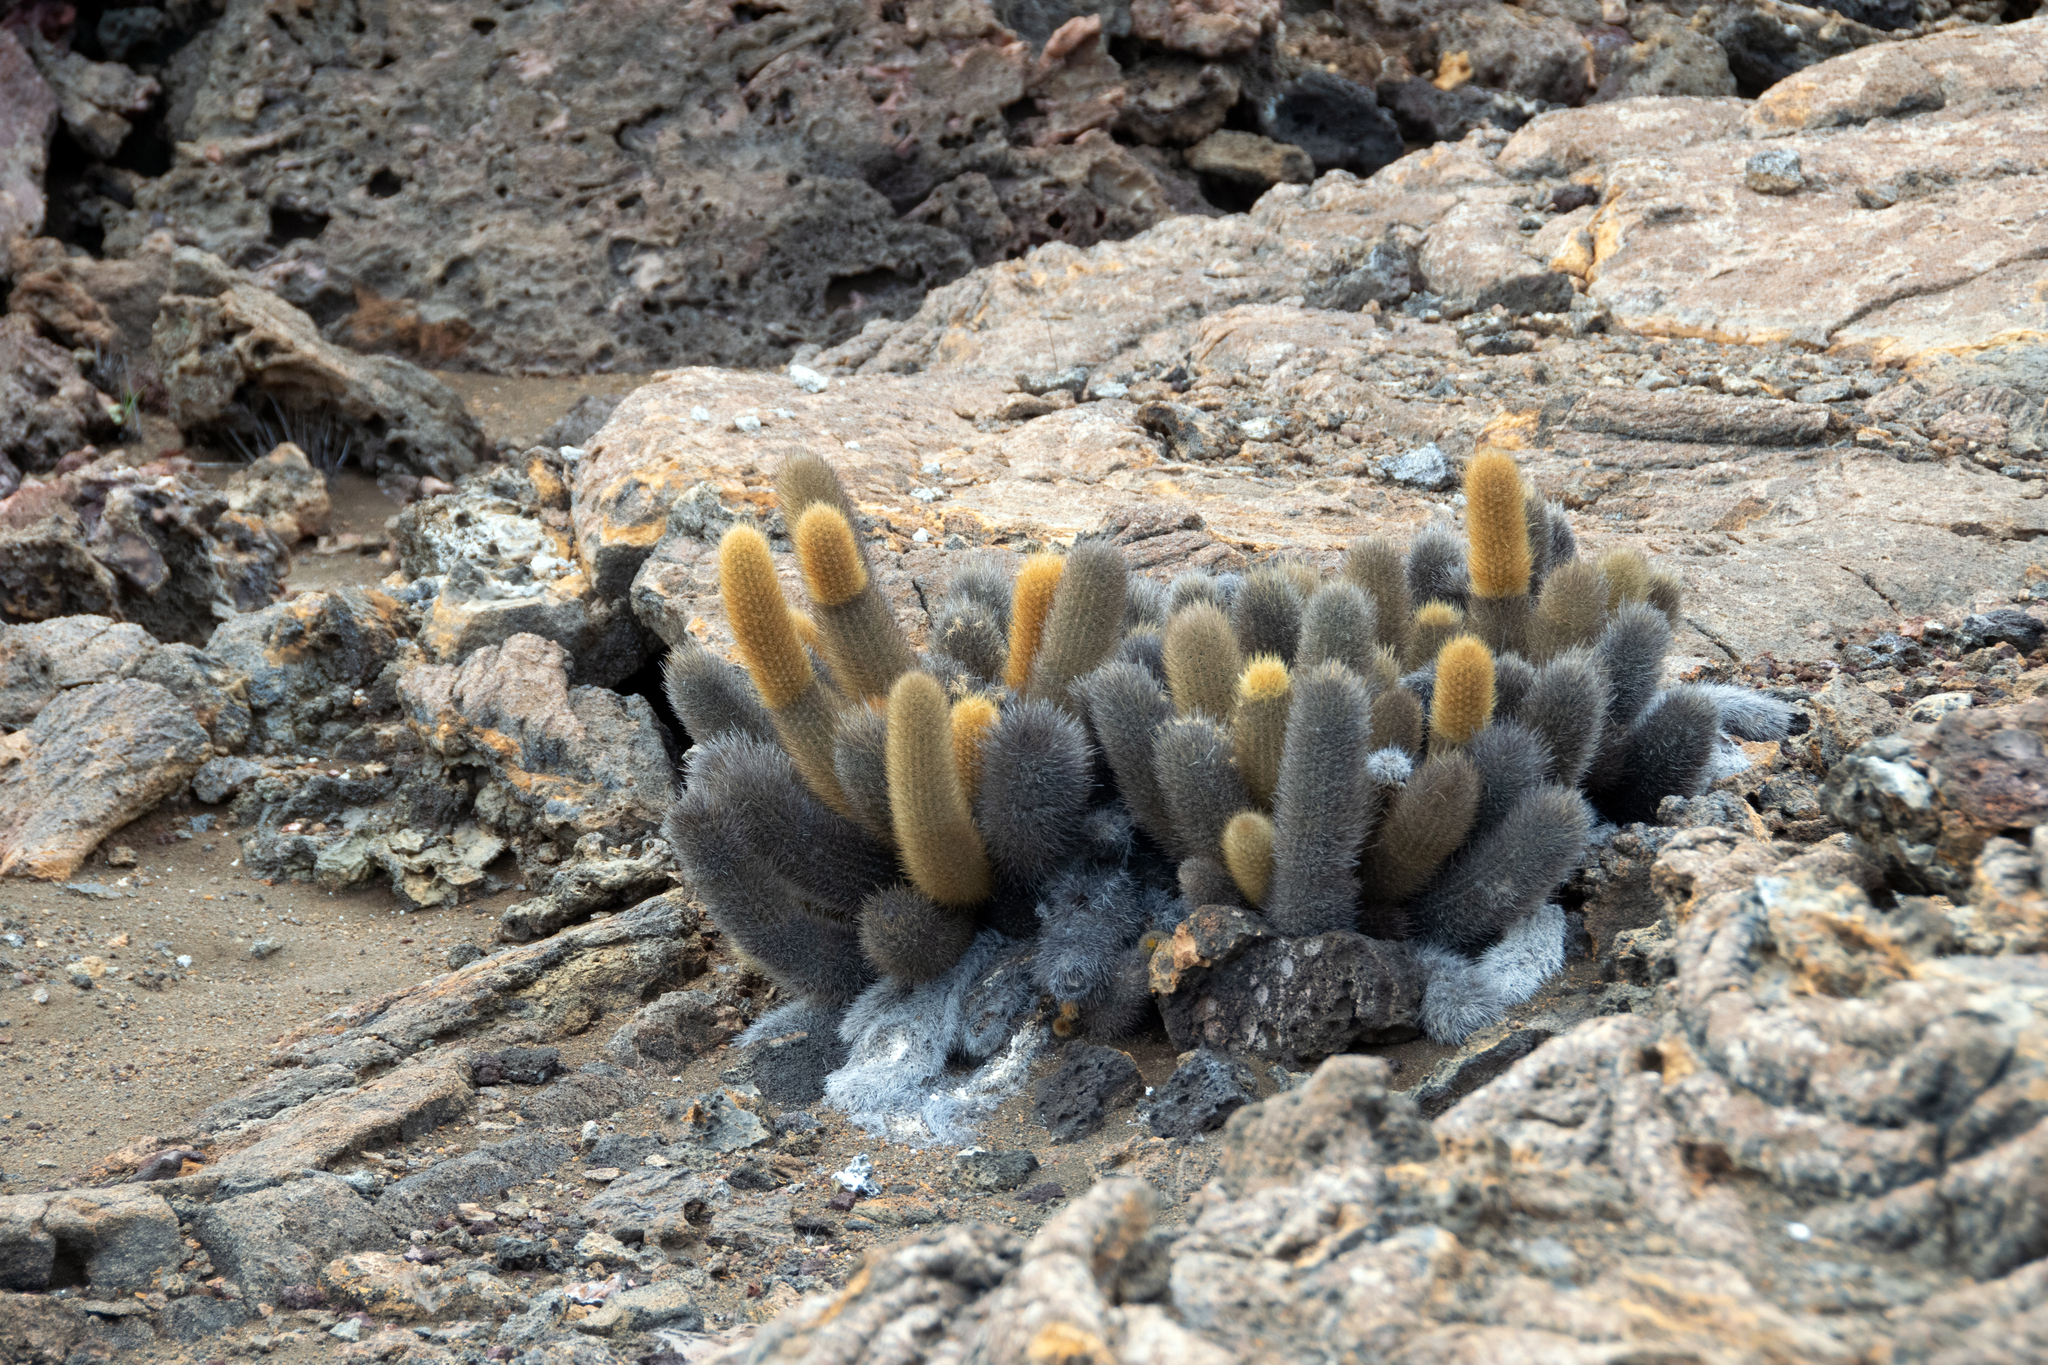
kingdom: Plantae
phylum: Tracheophyta
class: Magnoliopsida
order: Caryophyllales
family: Cactaceae
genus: Brachycereus
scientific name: Brachycereus nesioticus
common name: Lava cactus
